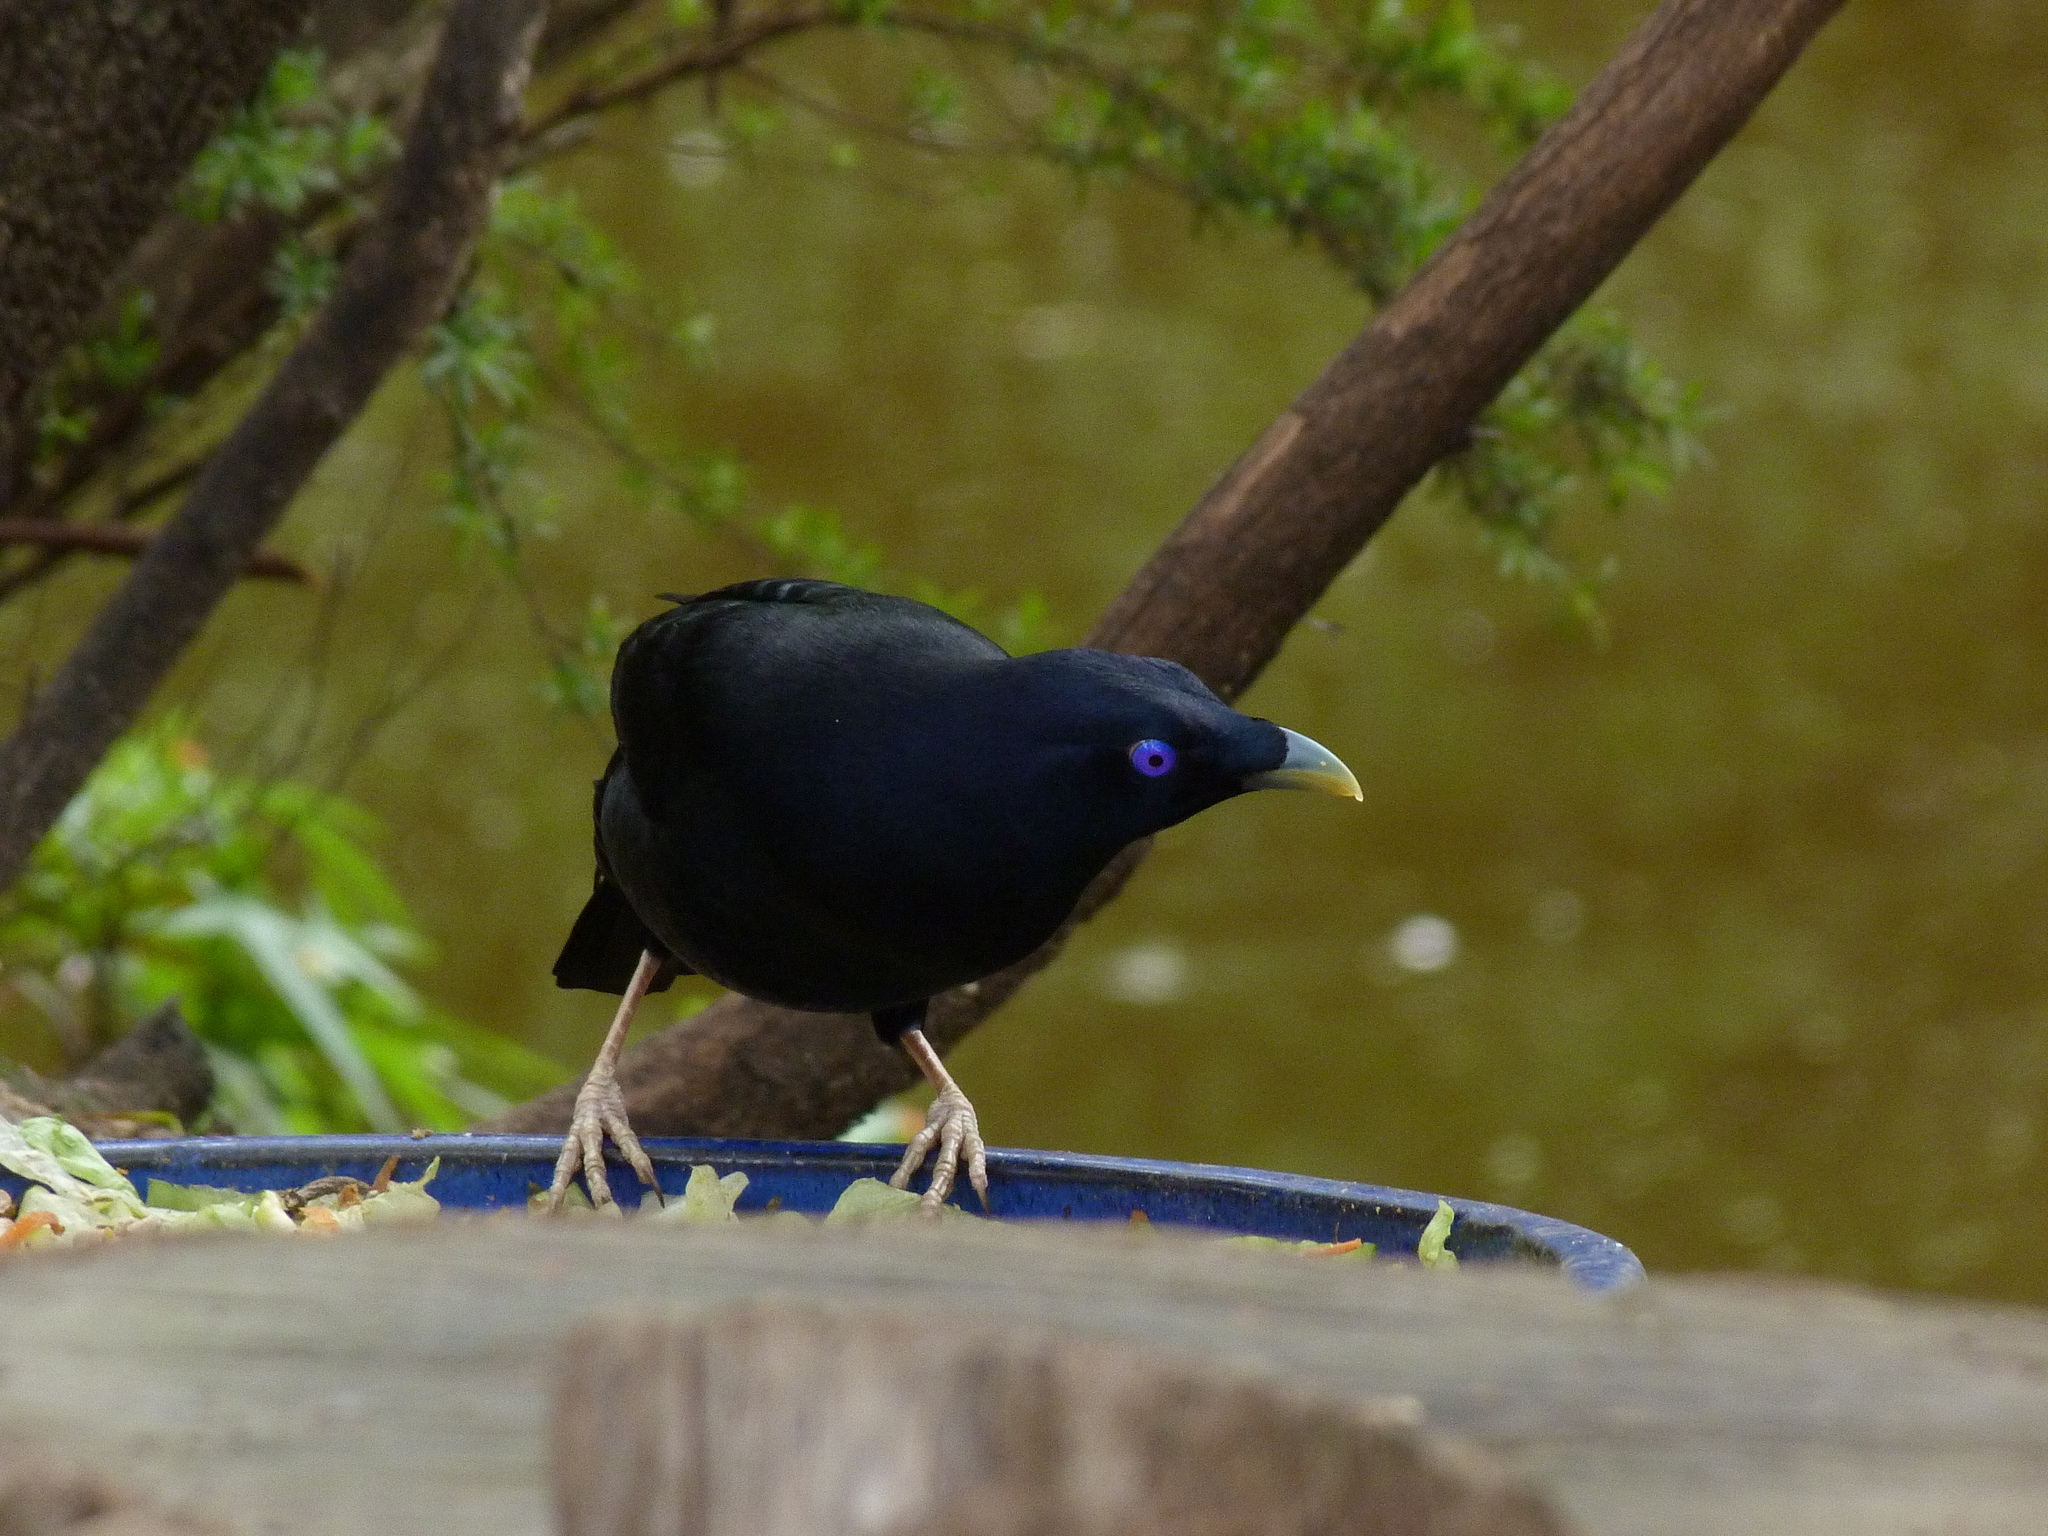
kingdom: Animalia
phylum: Chordata
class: Aves
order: Passeriformes
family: Ptilonorhynchidae
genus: Ptilonorhynchus
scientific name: Ptilonorhynchus violaceus
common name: Satin bowerbird
